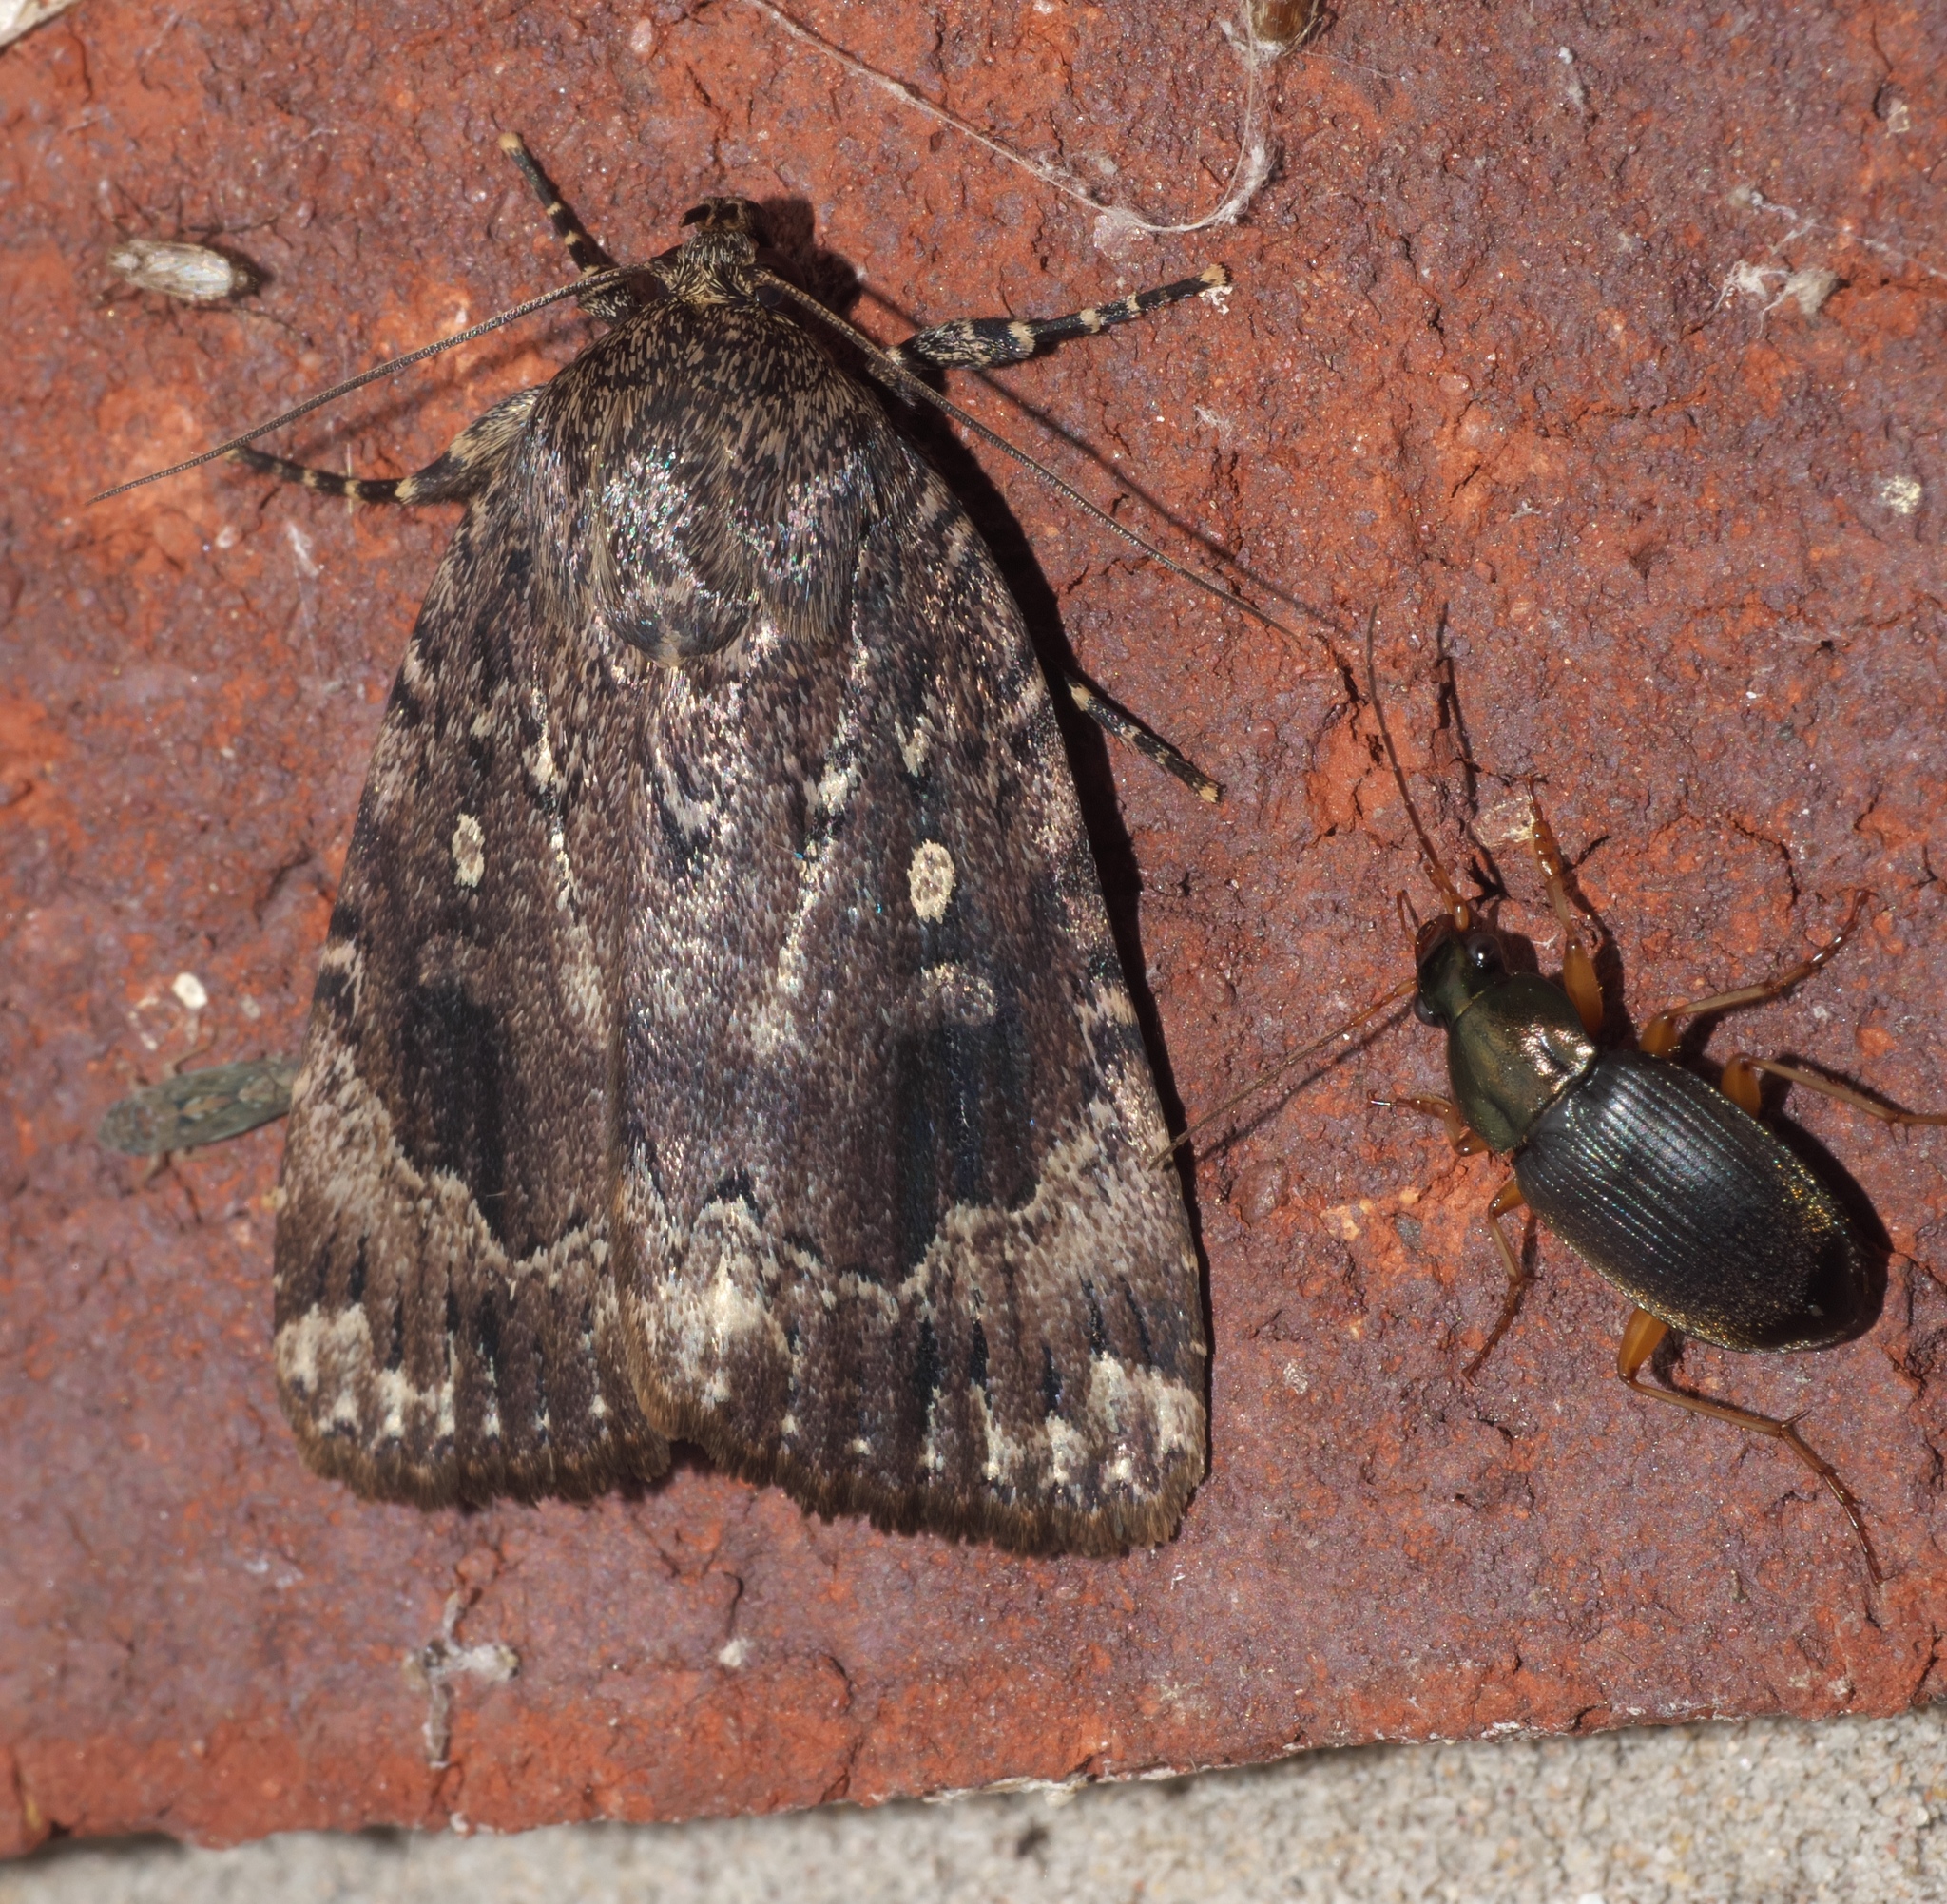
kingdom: Animalia
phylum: Arthropoda
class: Insecta
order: Lepidoptera
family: Noctuidae
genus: Amphipyra
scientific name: Amphipyra pyramidoides
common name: American copper underwing
